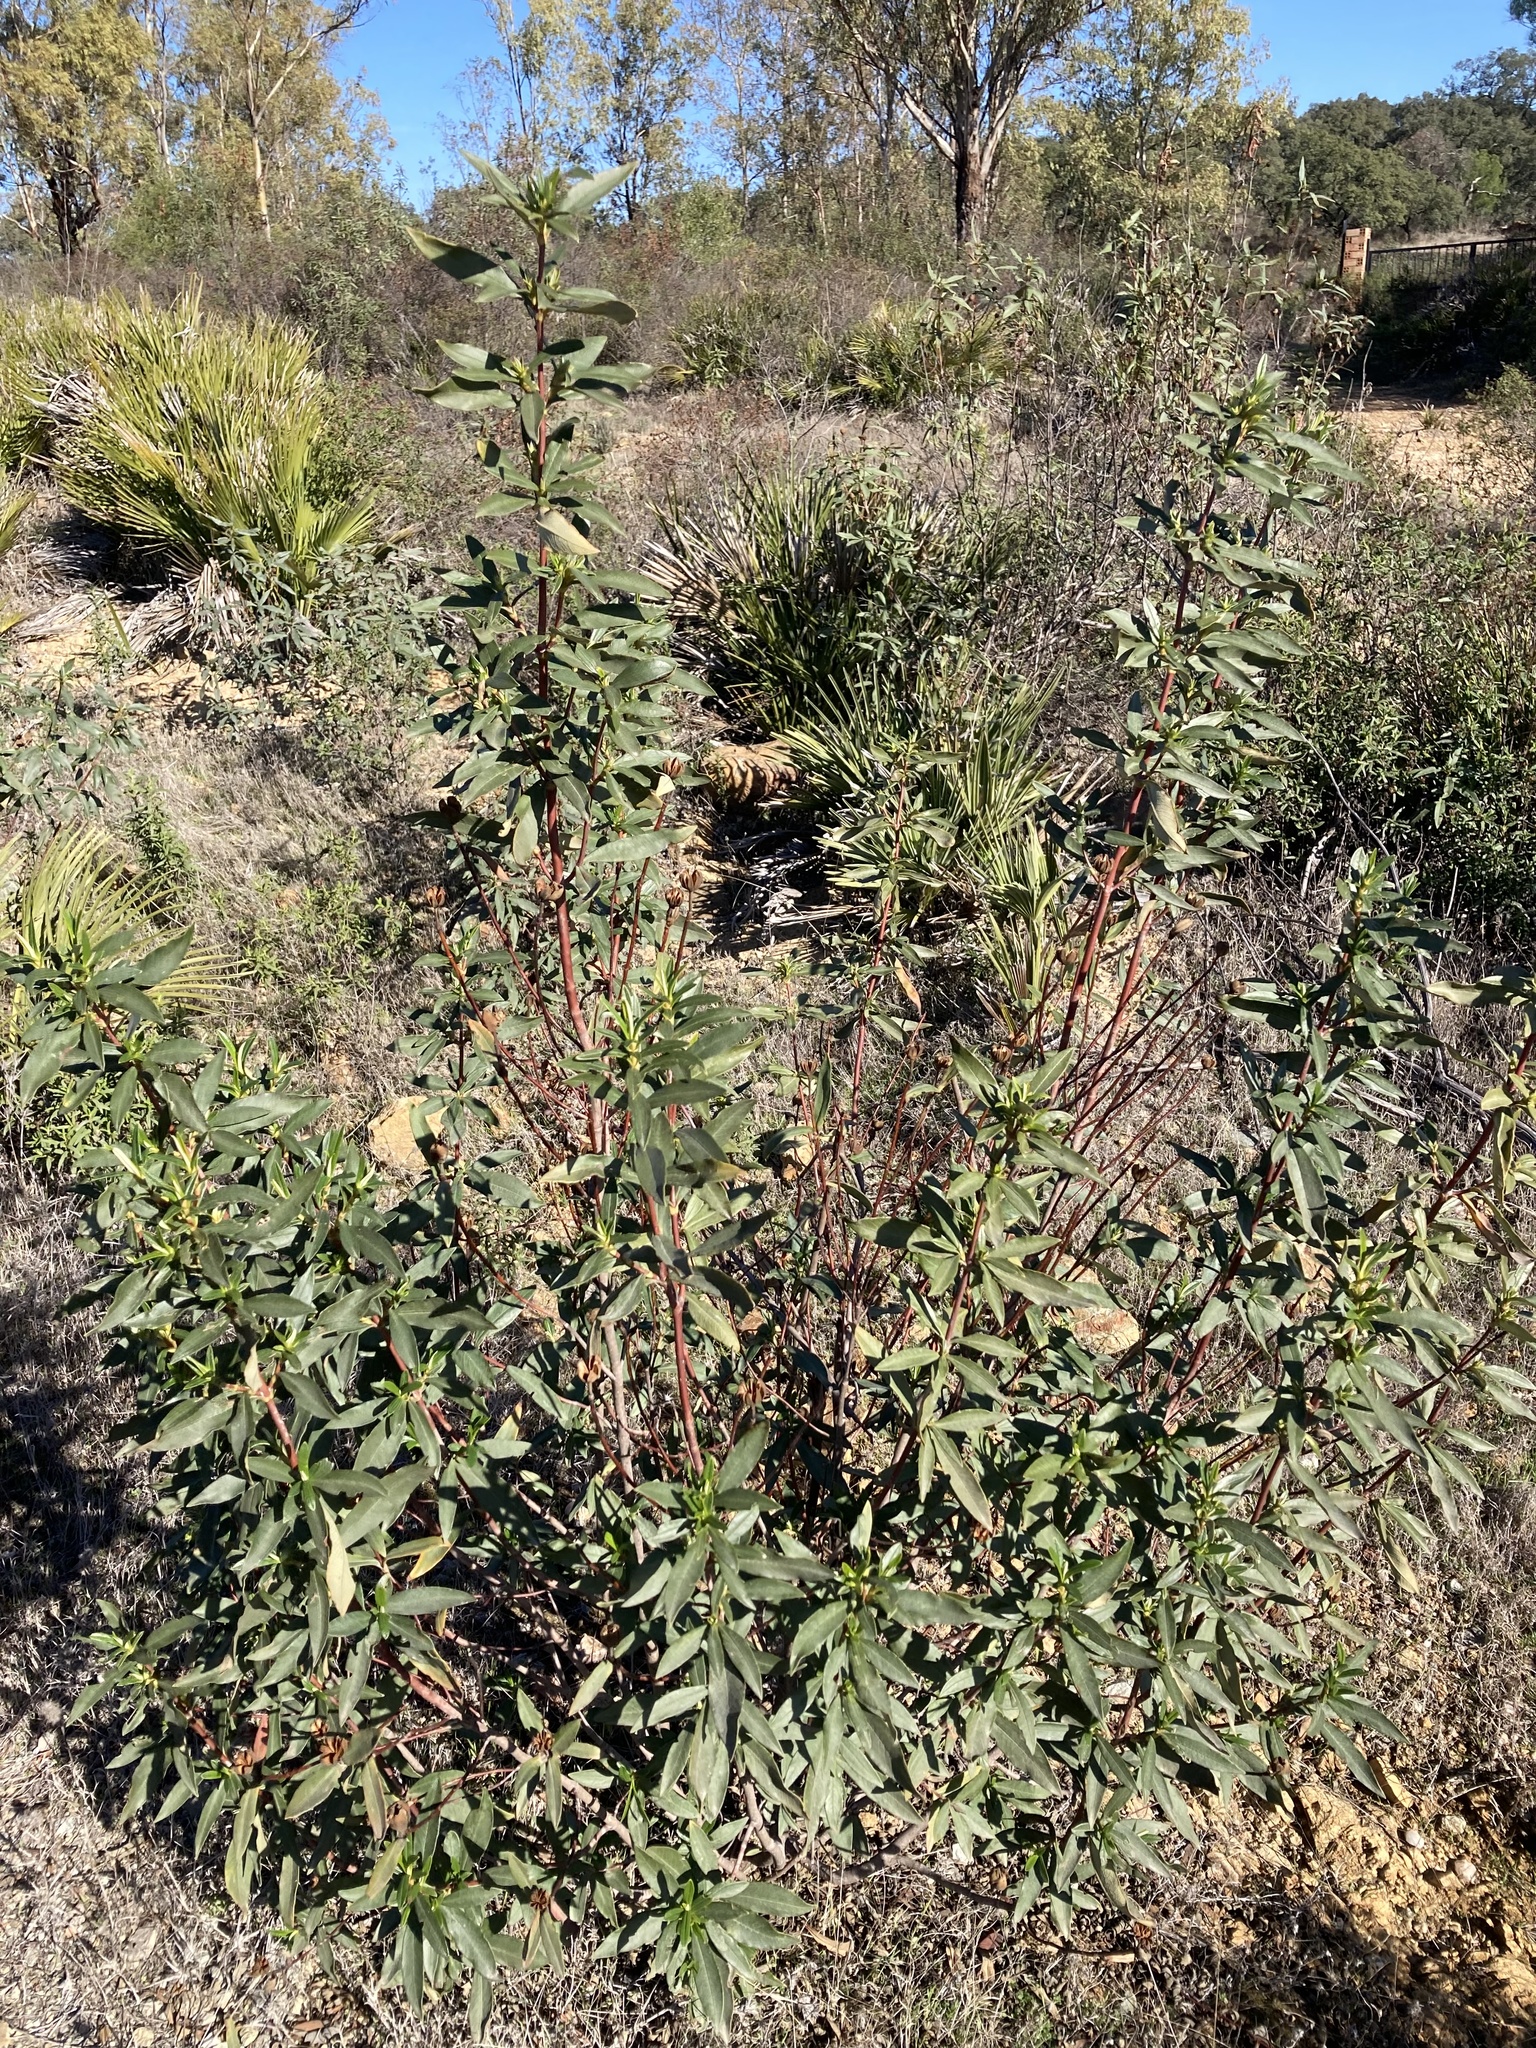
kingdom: Plantae
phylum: Tracheophyta
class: Magnoliopsida
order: Malvales
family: Cistaceae
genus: Cistus
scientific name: Cistus ladanifer
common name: Common gum cistus
